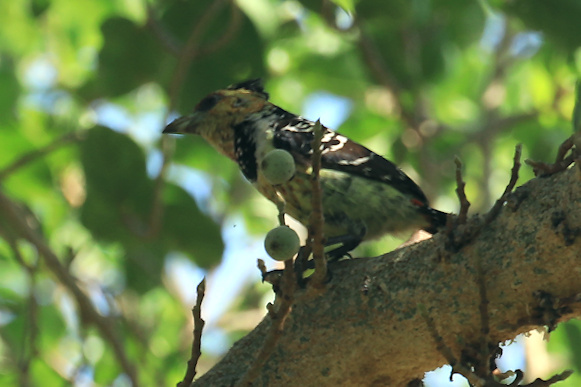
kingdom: Animalia
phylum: Chordata
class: Aves
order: Piciformes
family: Lybiidae
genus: Trachyphonus
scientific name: Trachyphonus vaillantii
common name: Crested barbet
